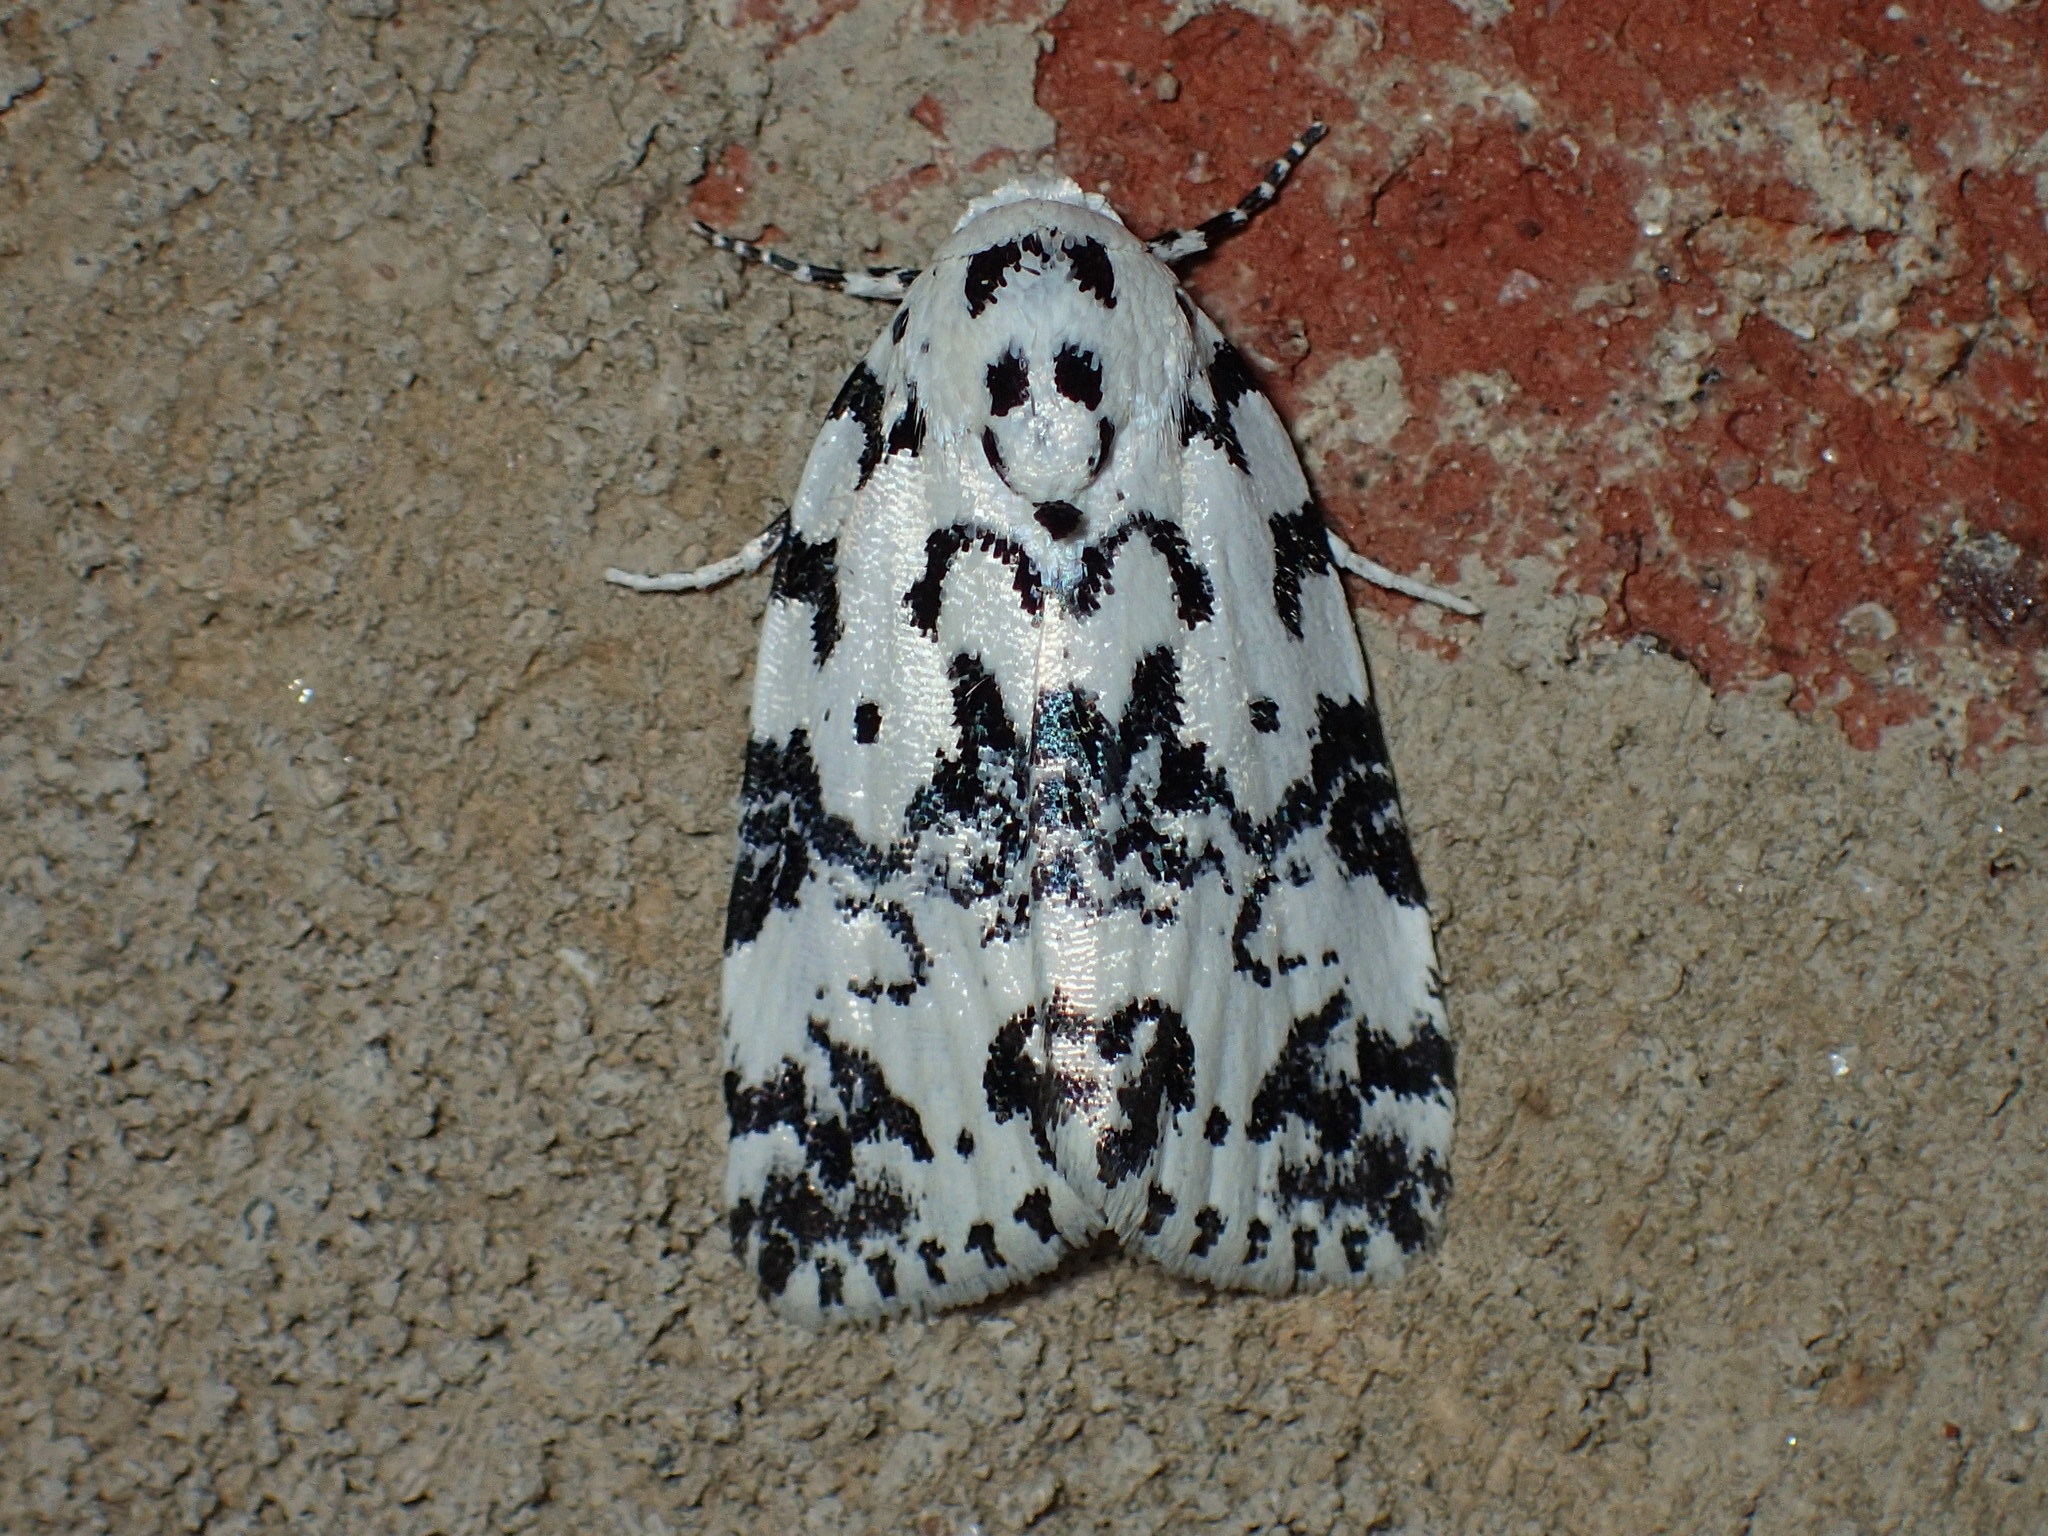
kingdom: Animalia
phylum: Arthropoda
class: Insecta
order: Lepidoptera
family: Noctuidae
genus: Polygrammate
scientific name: Polygrammate hebraeicum
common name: Hebrew moth
